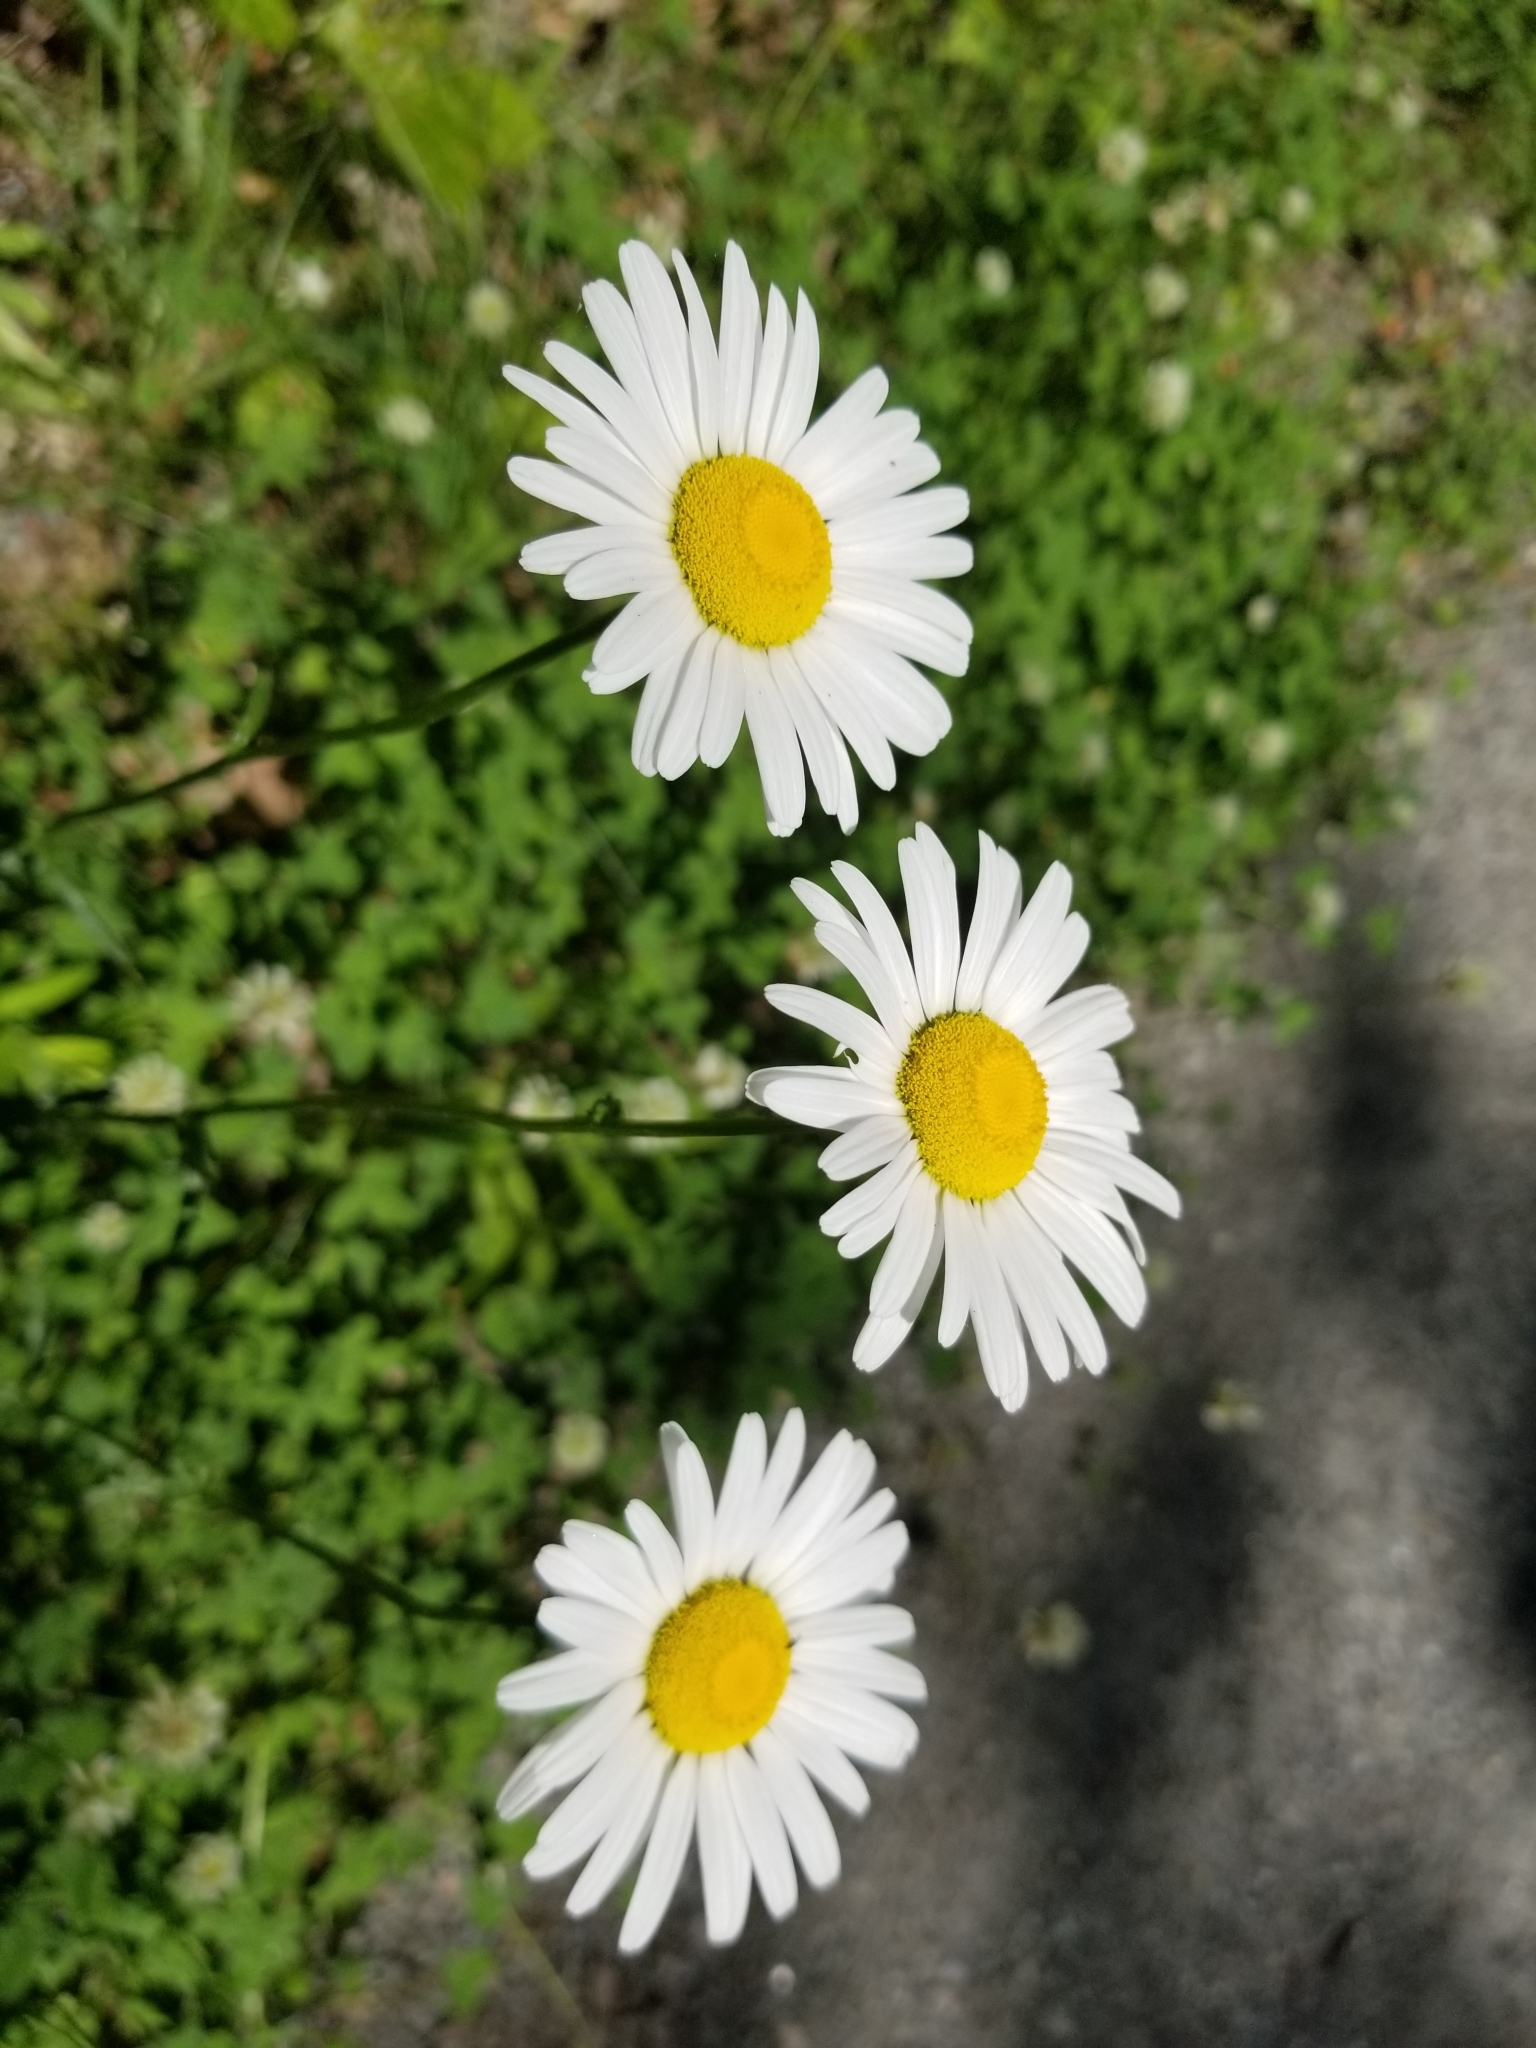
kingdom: Plantae
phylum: Tracheophyta
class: Magnoliopsida
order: Asterales
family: Asteraceae
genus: Leucanthemum
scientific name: Leucanthemum vulgare
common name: Oxeye daisy
